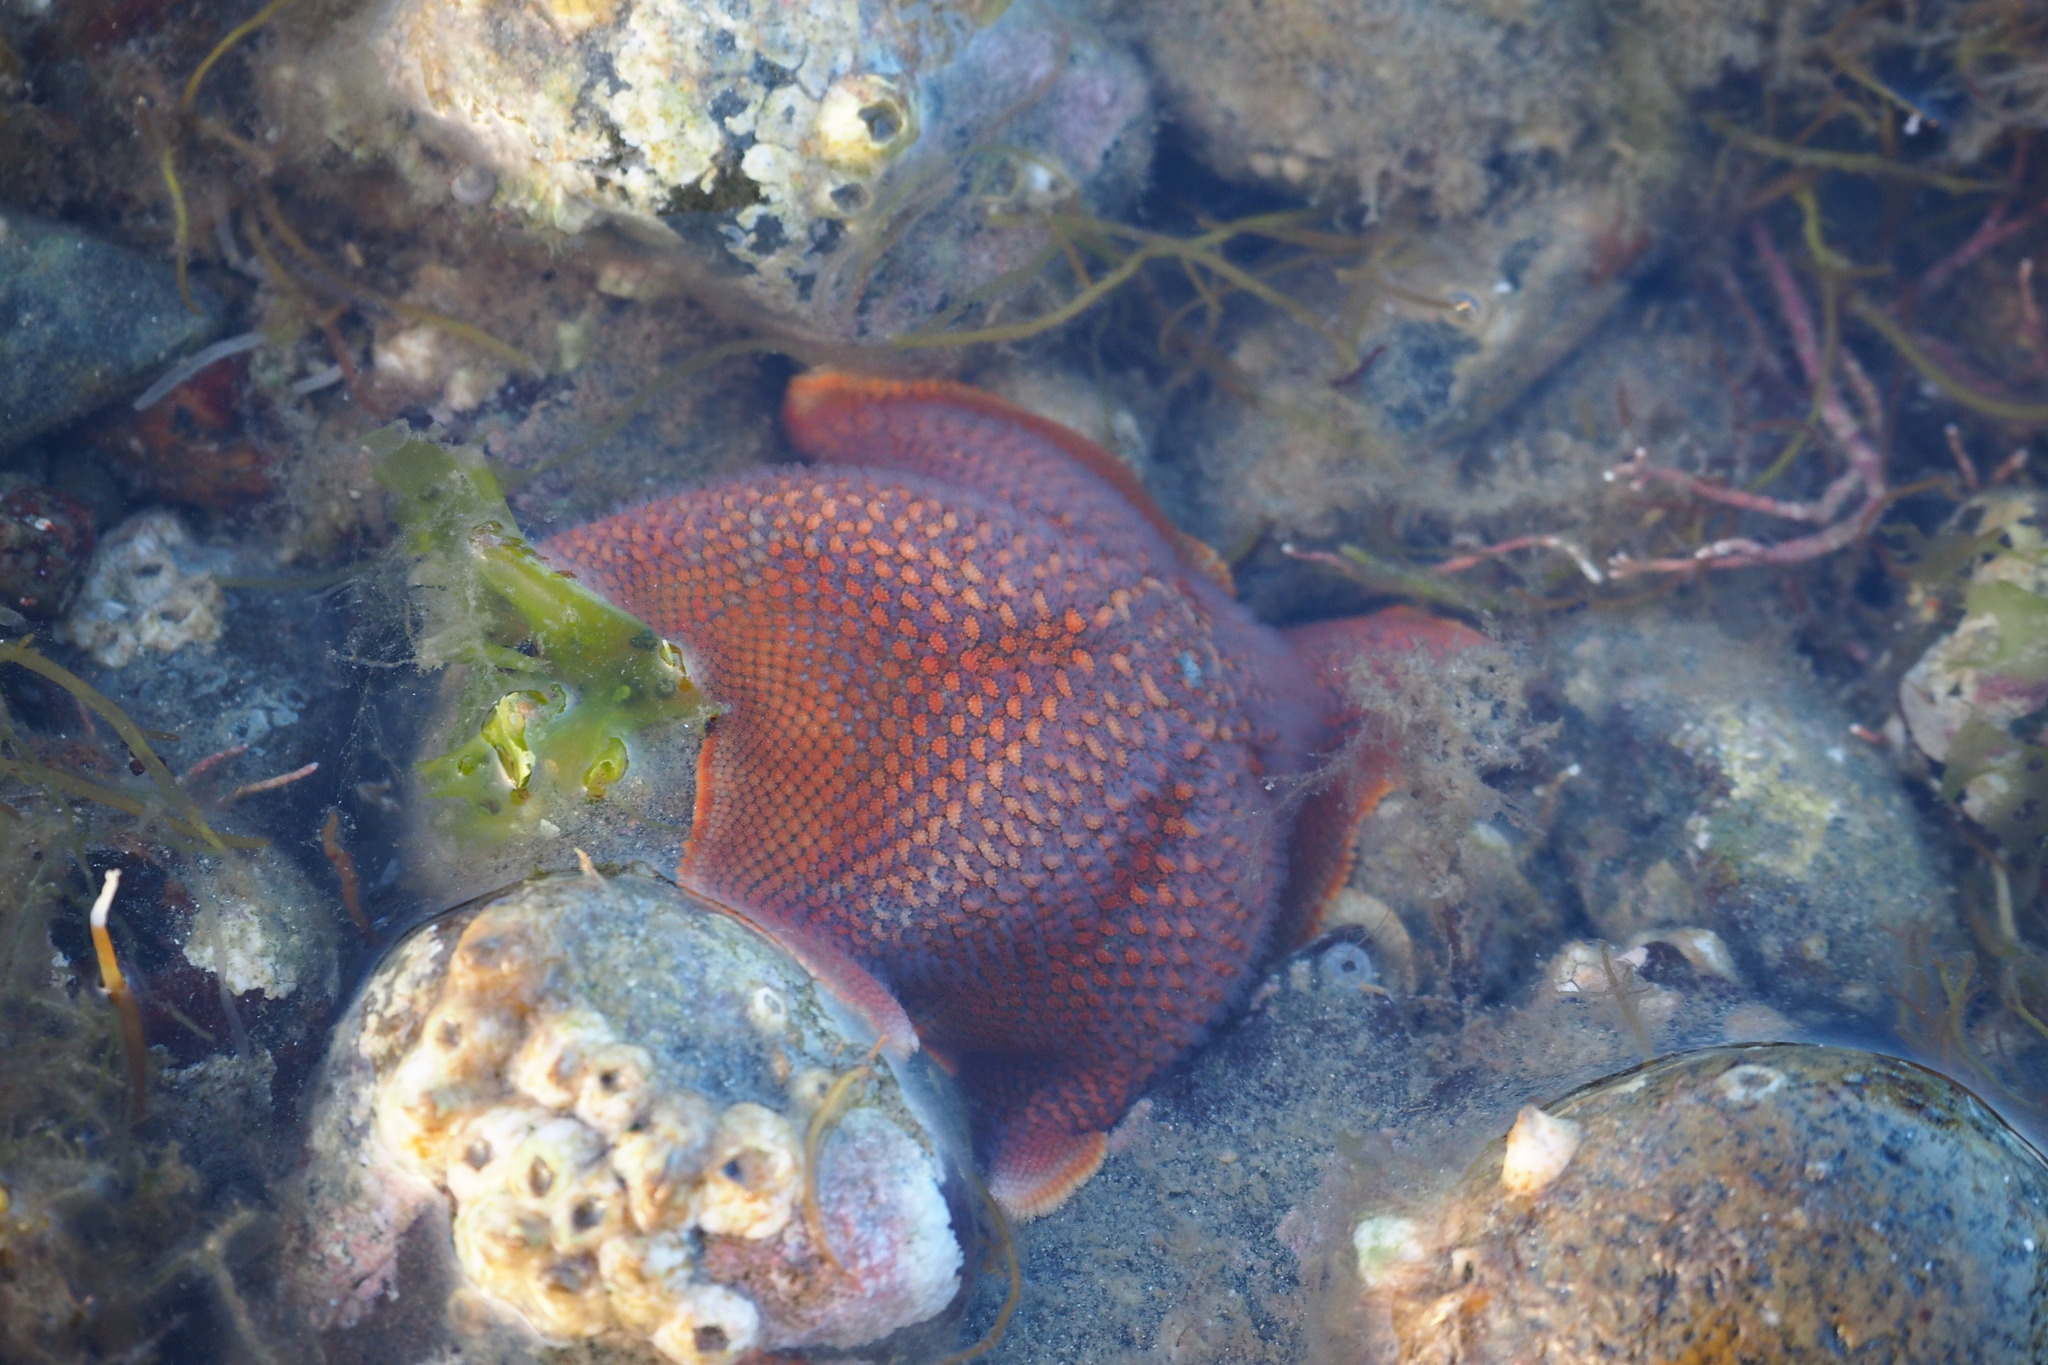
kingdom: Animalia
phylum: Echinodermata
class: Asteroidea
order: Valvatida
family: Asterinidae
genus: Patiria
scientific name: Patiria miniata
